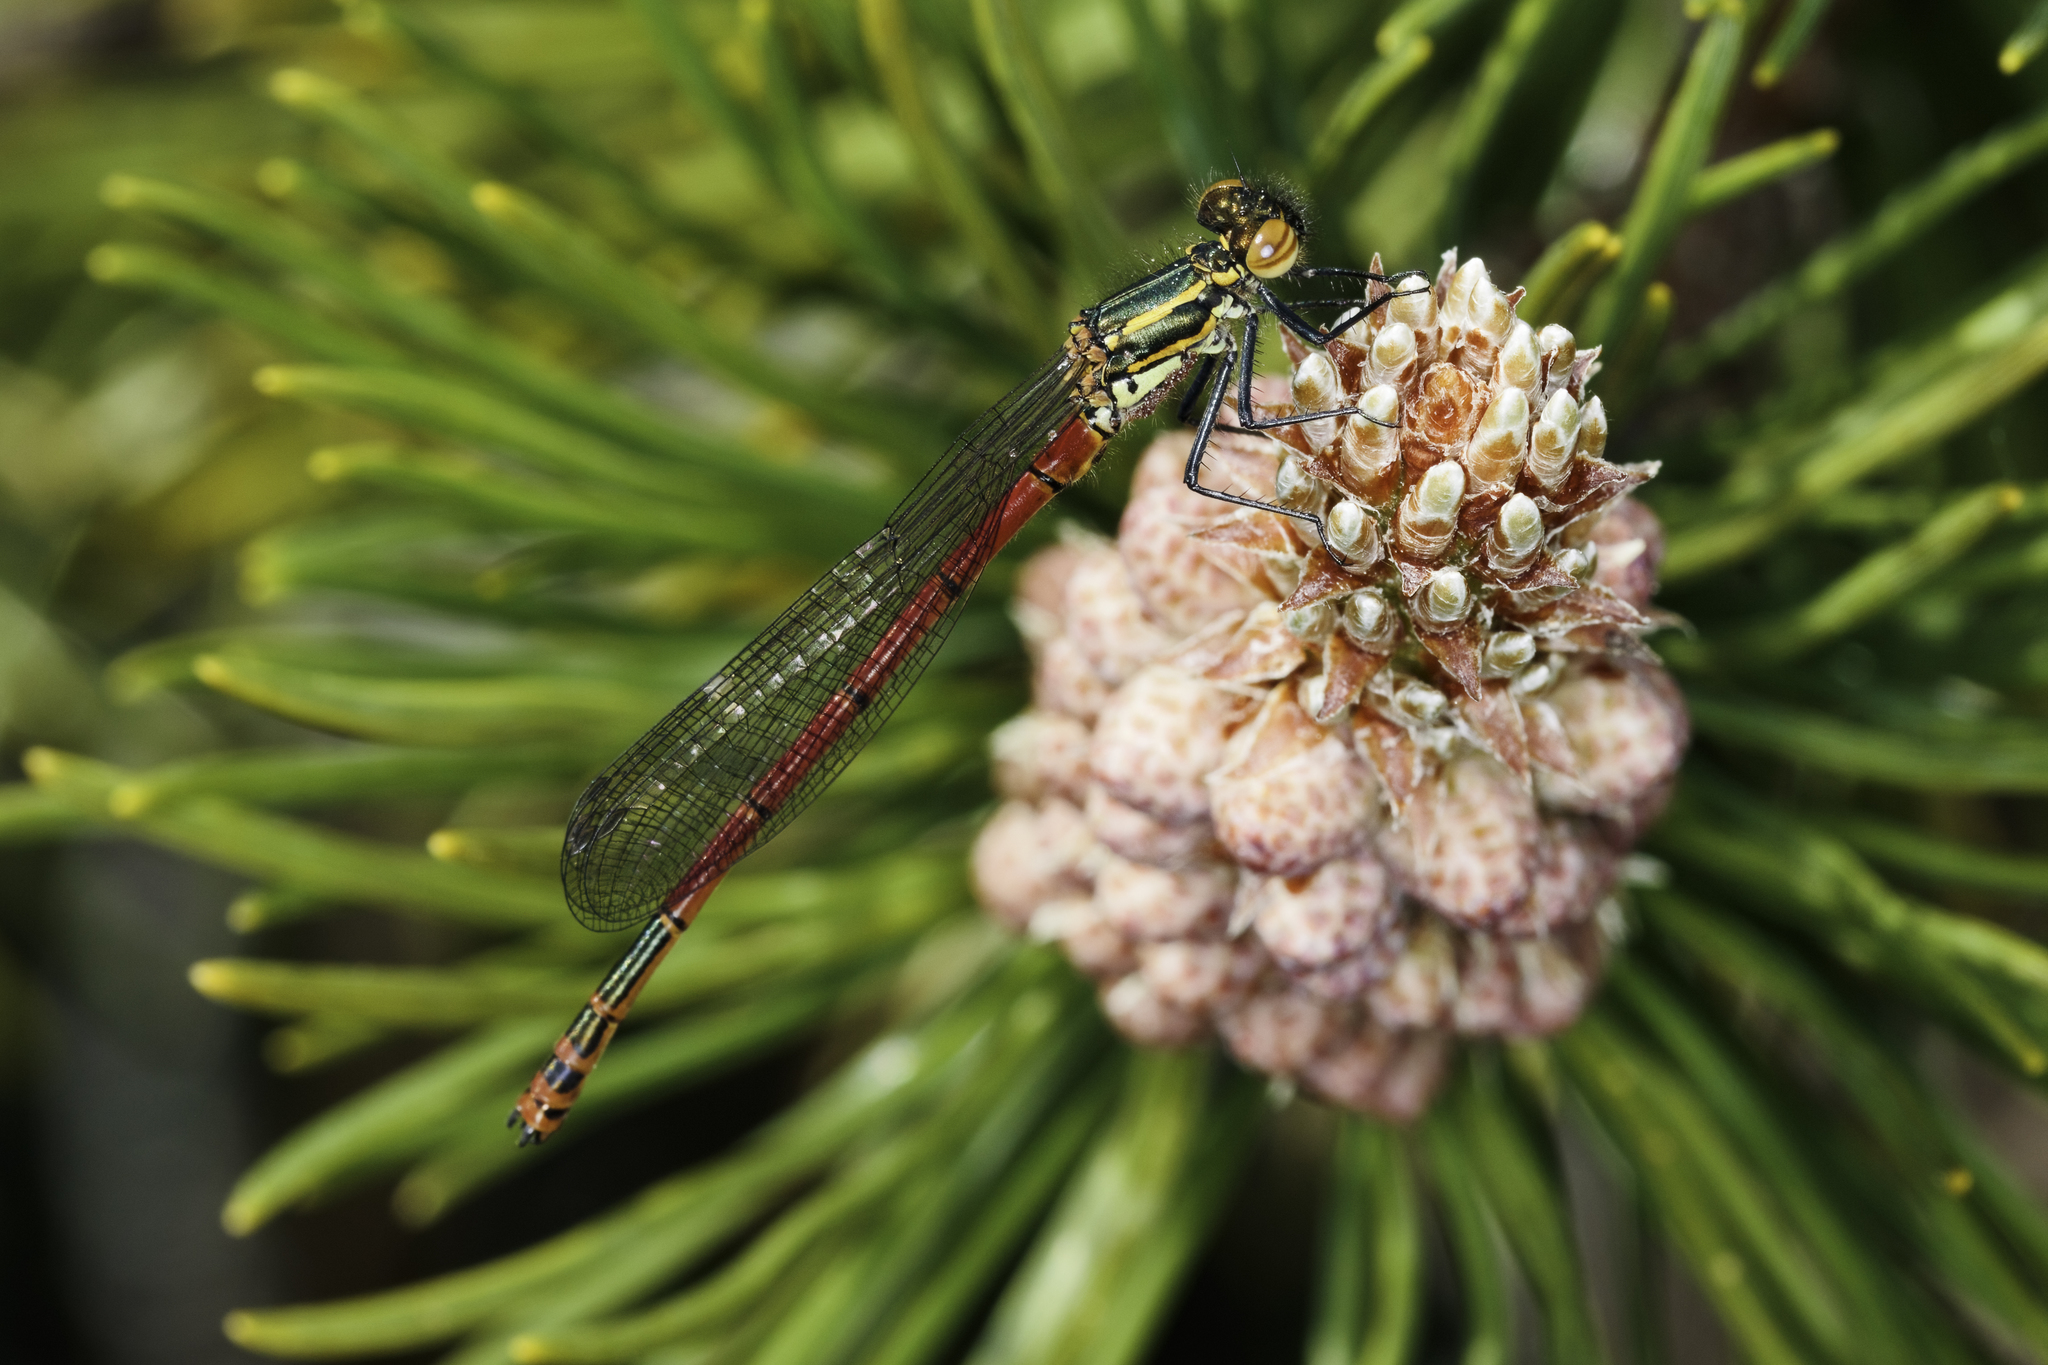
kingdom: Animalia
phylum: Arthropoda
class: Insecta
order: Odonata
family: Coenagrionidae
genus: Pyrrhosoma
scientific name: Pyrrhosoma nymphula
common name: Large red damsel
